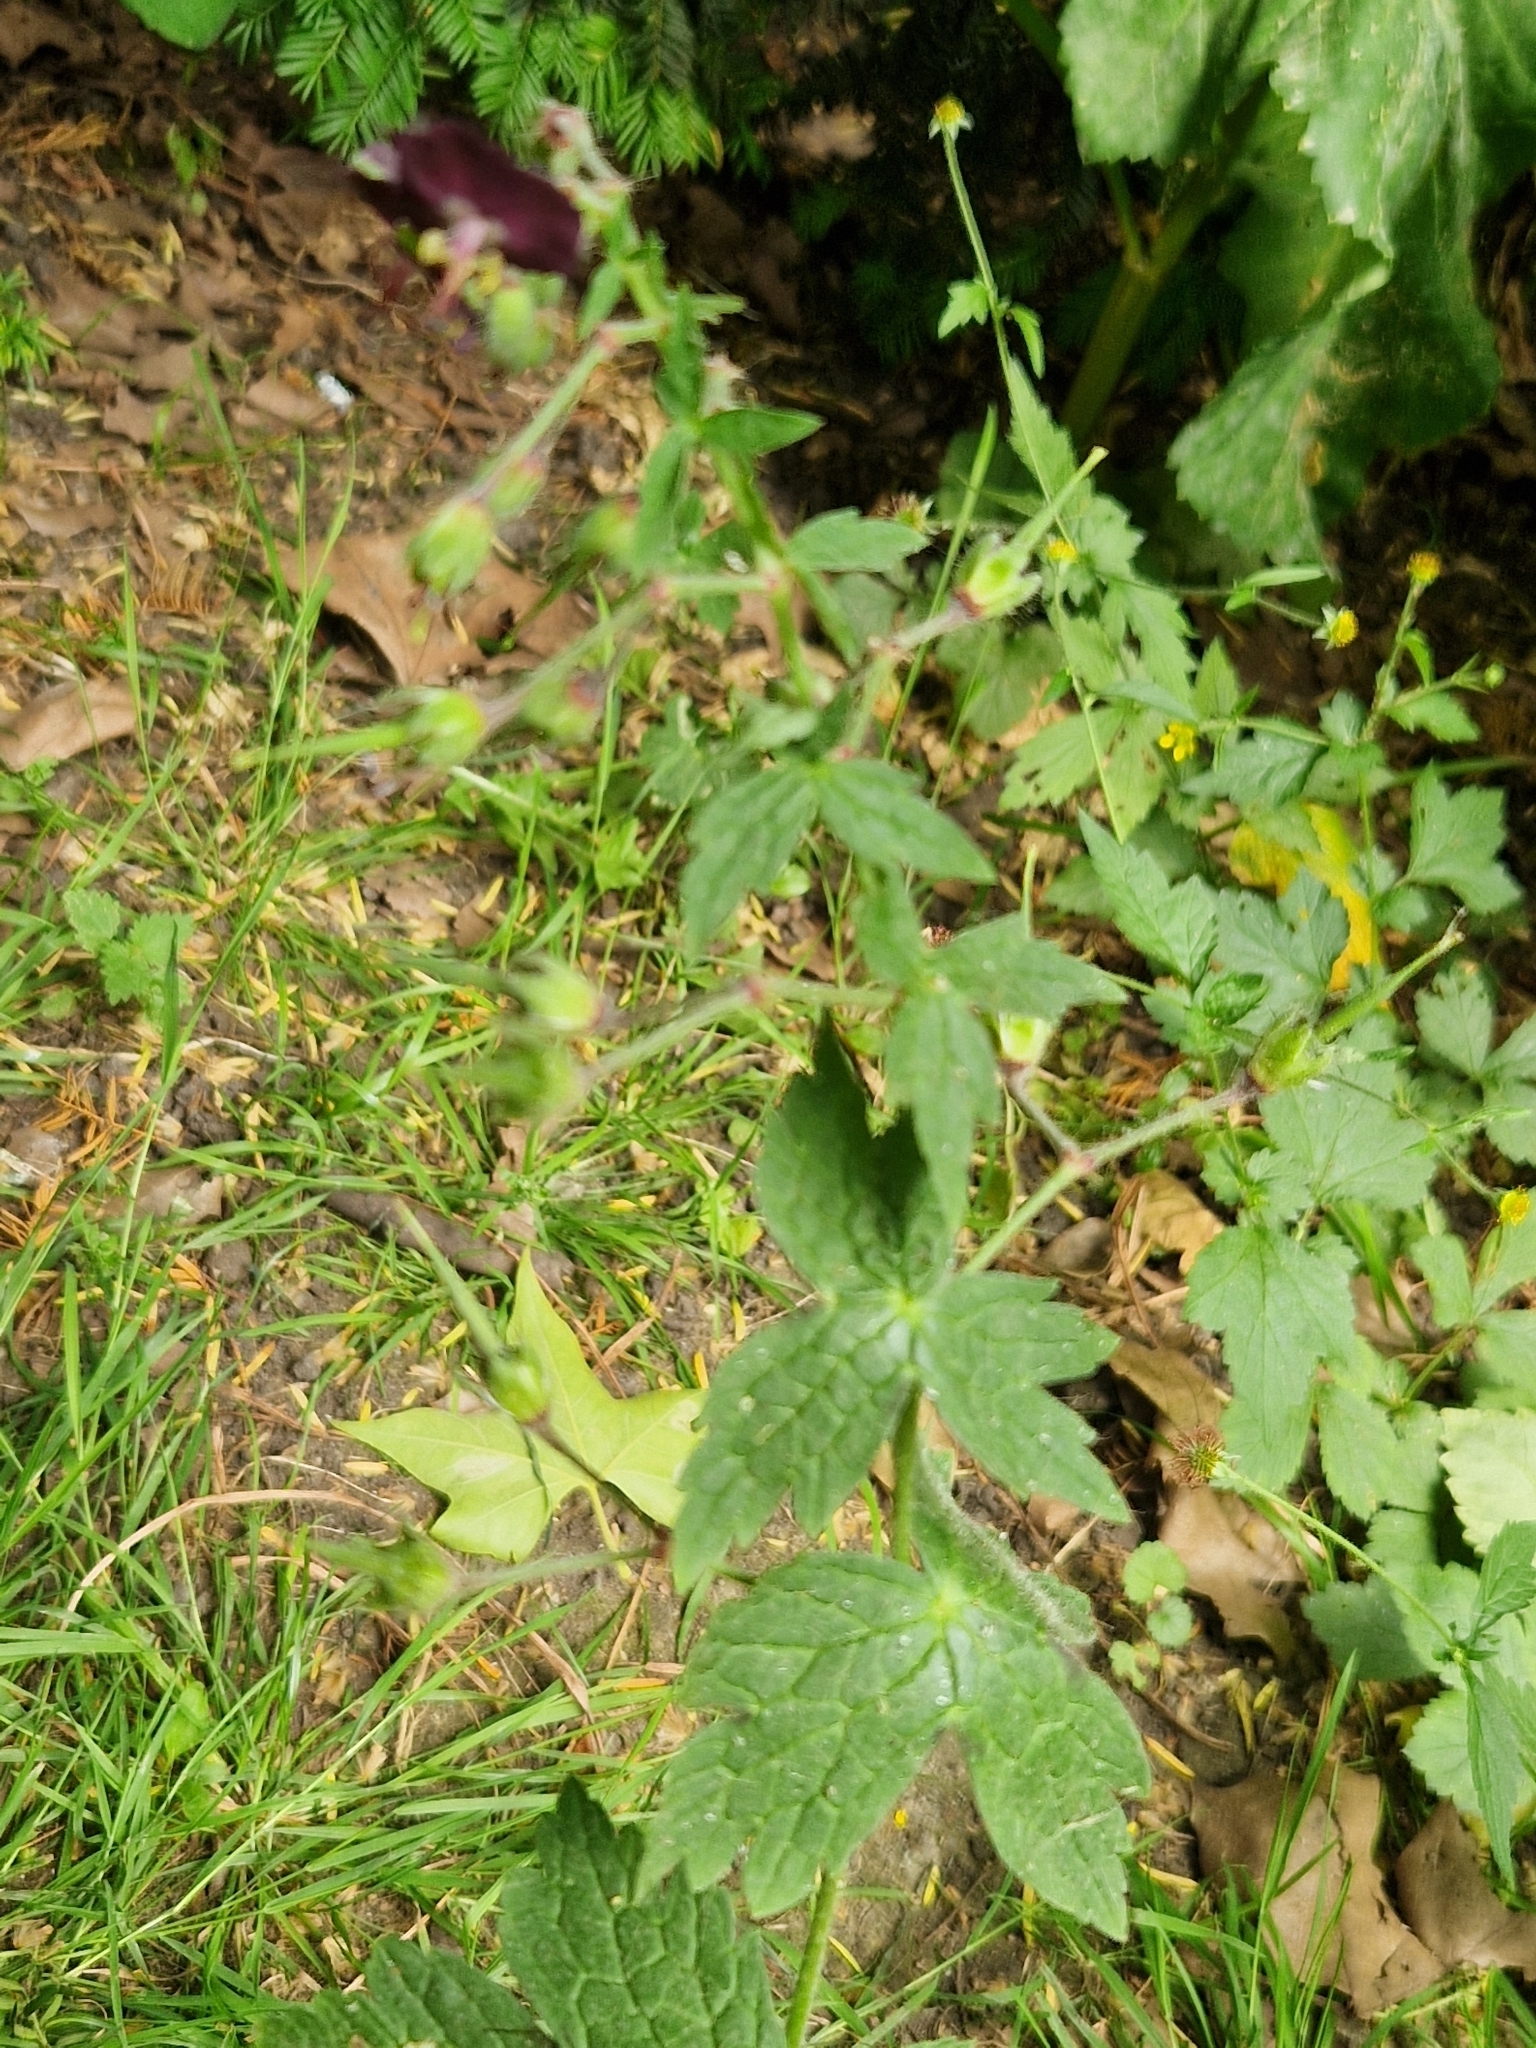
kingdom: Plantae
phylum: Tracheophyta
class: Magnoliopsida
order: Geraniales
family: Geraniaceae
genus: Geranium
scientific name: Geranium phaeum
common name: Dusky crane's-bill
